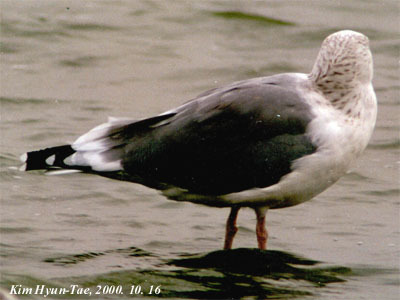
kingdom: Animalia
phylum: Chordata
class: Aves
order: Charadriiformes
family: Laridae
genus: Larus
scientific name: Larus vegae
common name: Vega gull
